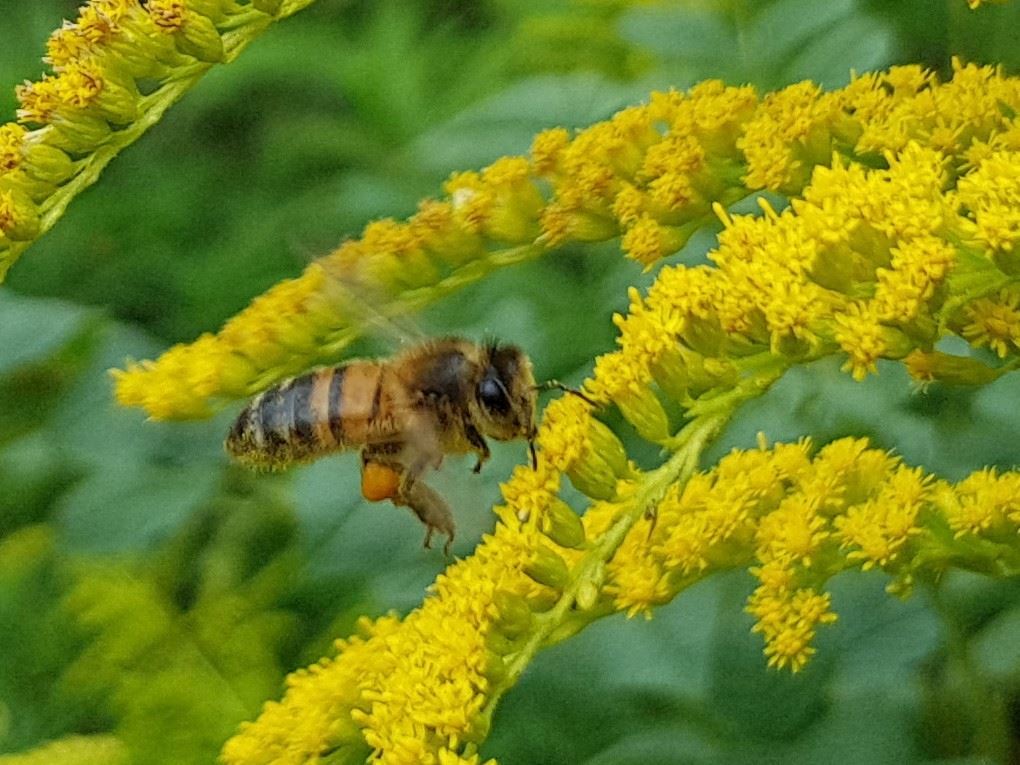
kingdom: Animalia
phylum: Arthropoda
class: Insecta
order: Hymenoptera
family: Apidae
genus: Apis
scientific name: Apis mellifera
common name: Honey bee
